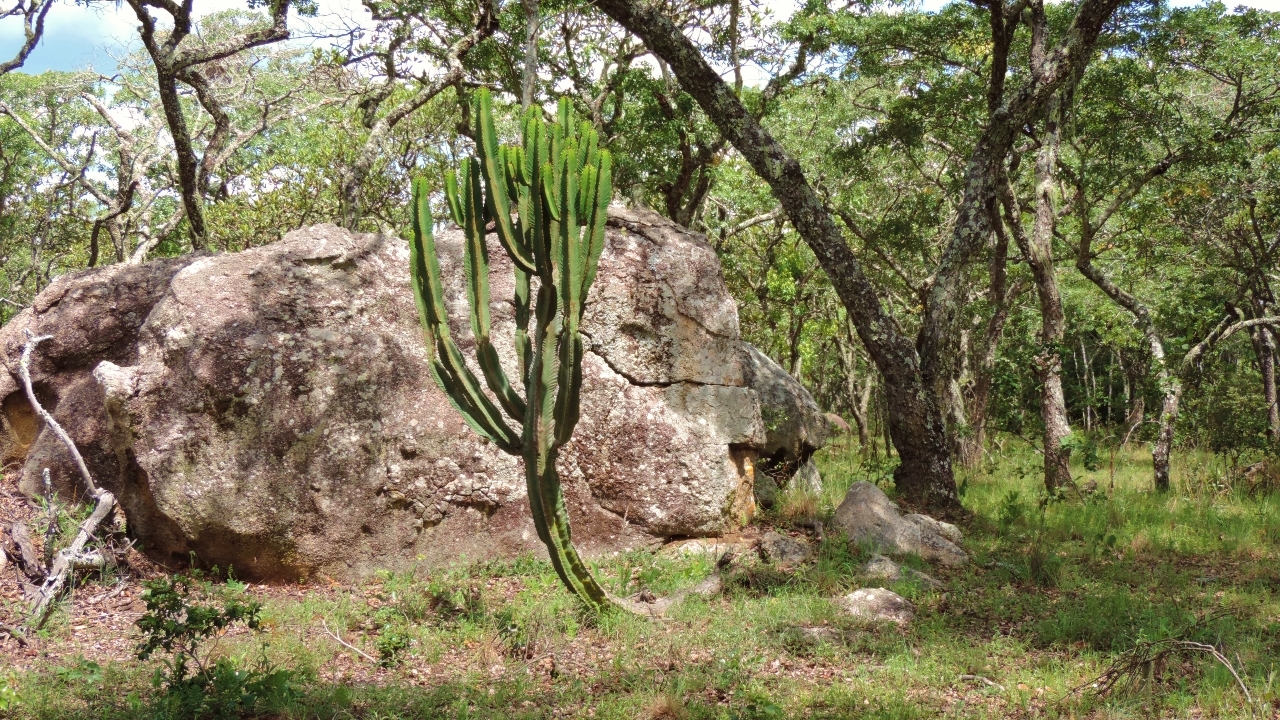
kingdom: Plantae
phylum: Tracheophyta
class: Magnoliopsida
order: Malpighiales
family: Euphorbiaceae
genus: Euphorbia
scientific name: Euphorbia ingens
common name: Cactus spurge
